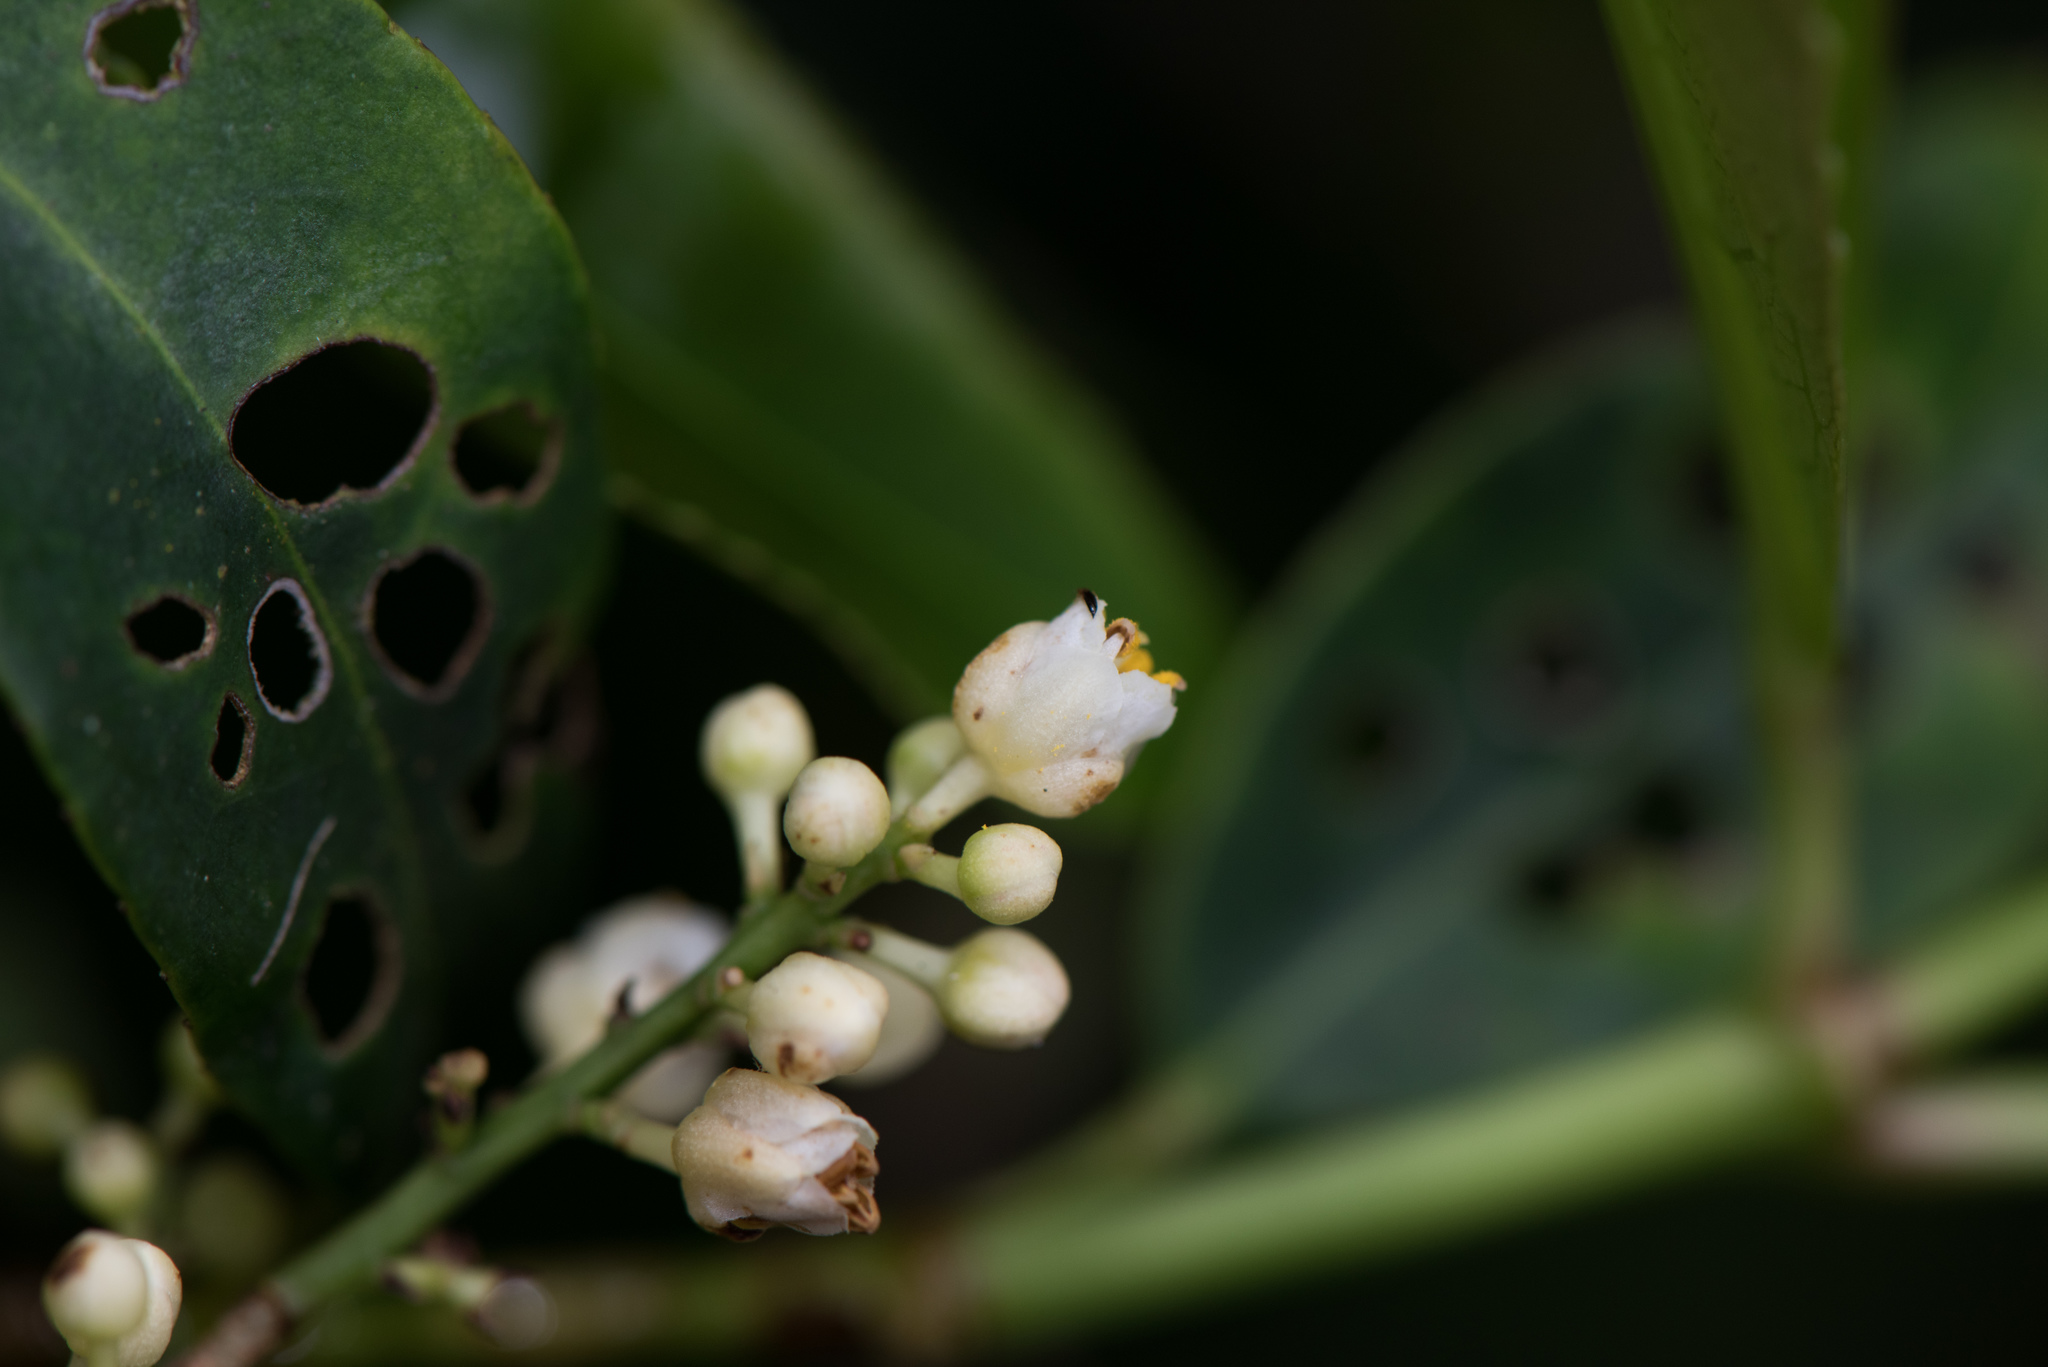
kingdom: Plantae
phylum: Tracheophyta
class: Magnoliopsida
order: Crossosomatales
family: Staphyleaceae
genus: Turpinia
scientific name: Turpinia formosana
